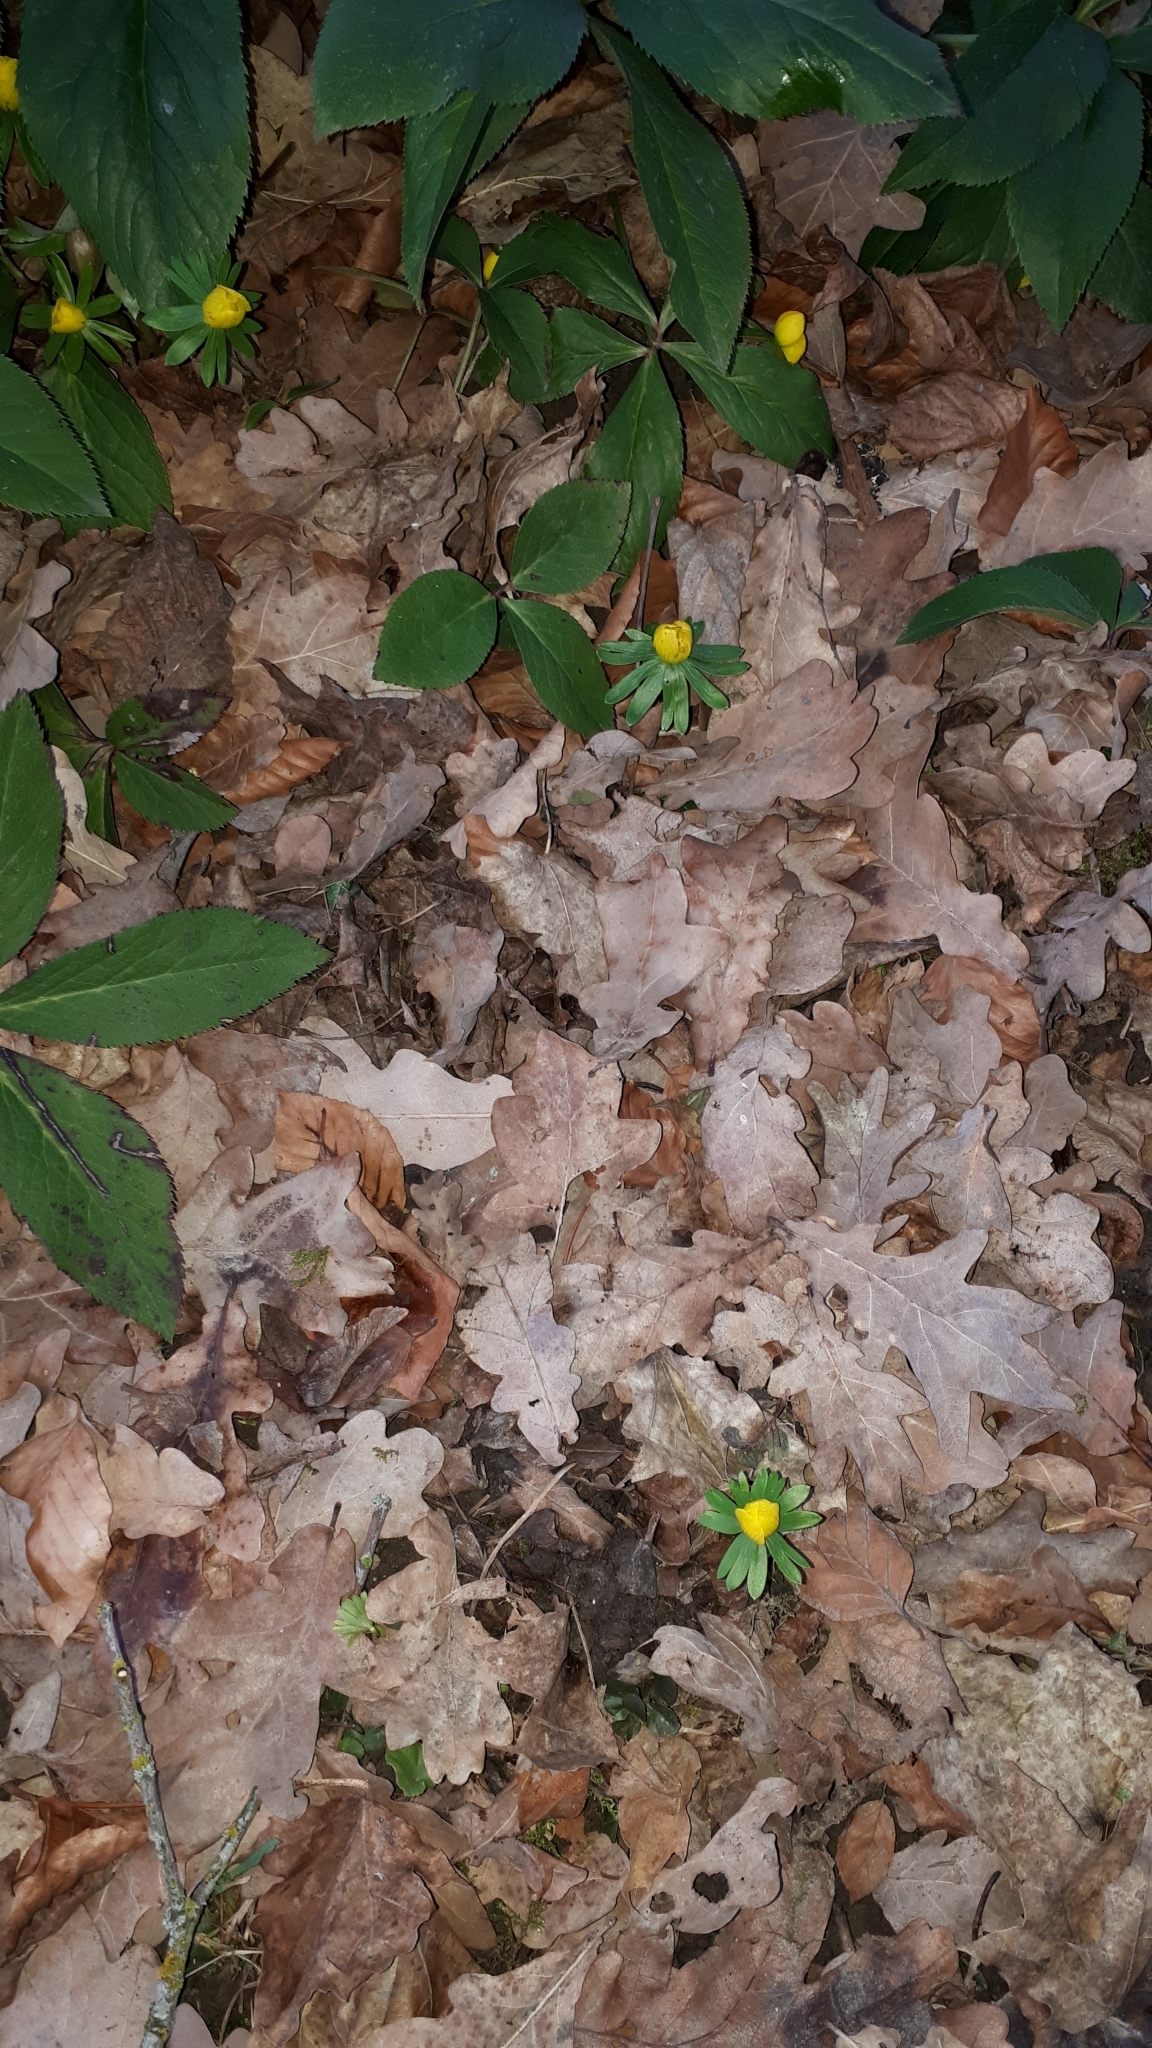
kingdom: Plantae
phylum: Tracheophyta
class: Magnoliopsida
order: Ranunculales
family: Ranunculaceae
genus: Eranthis
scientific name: Eranthis hyemalis
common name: Winter aconite
